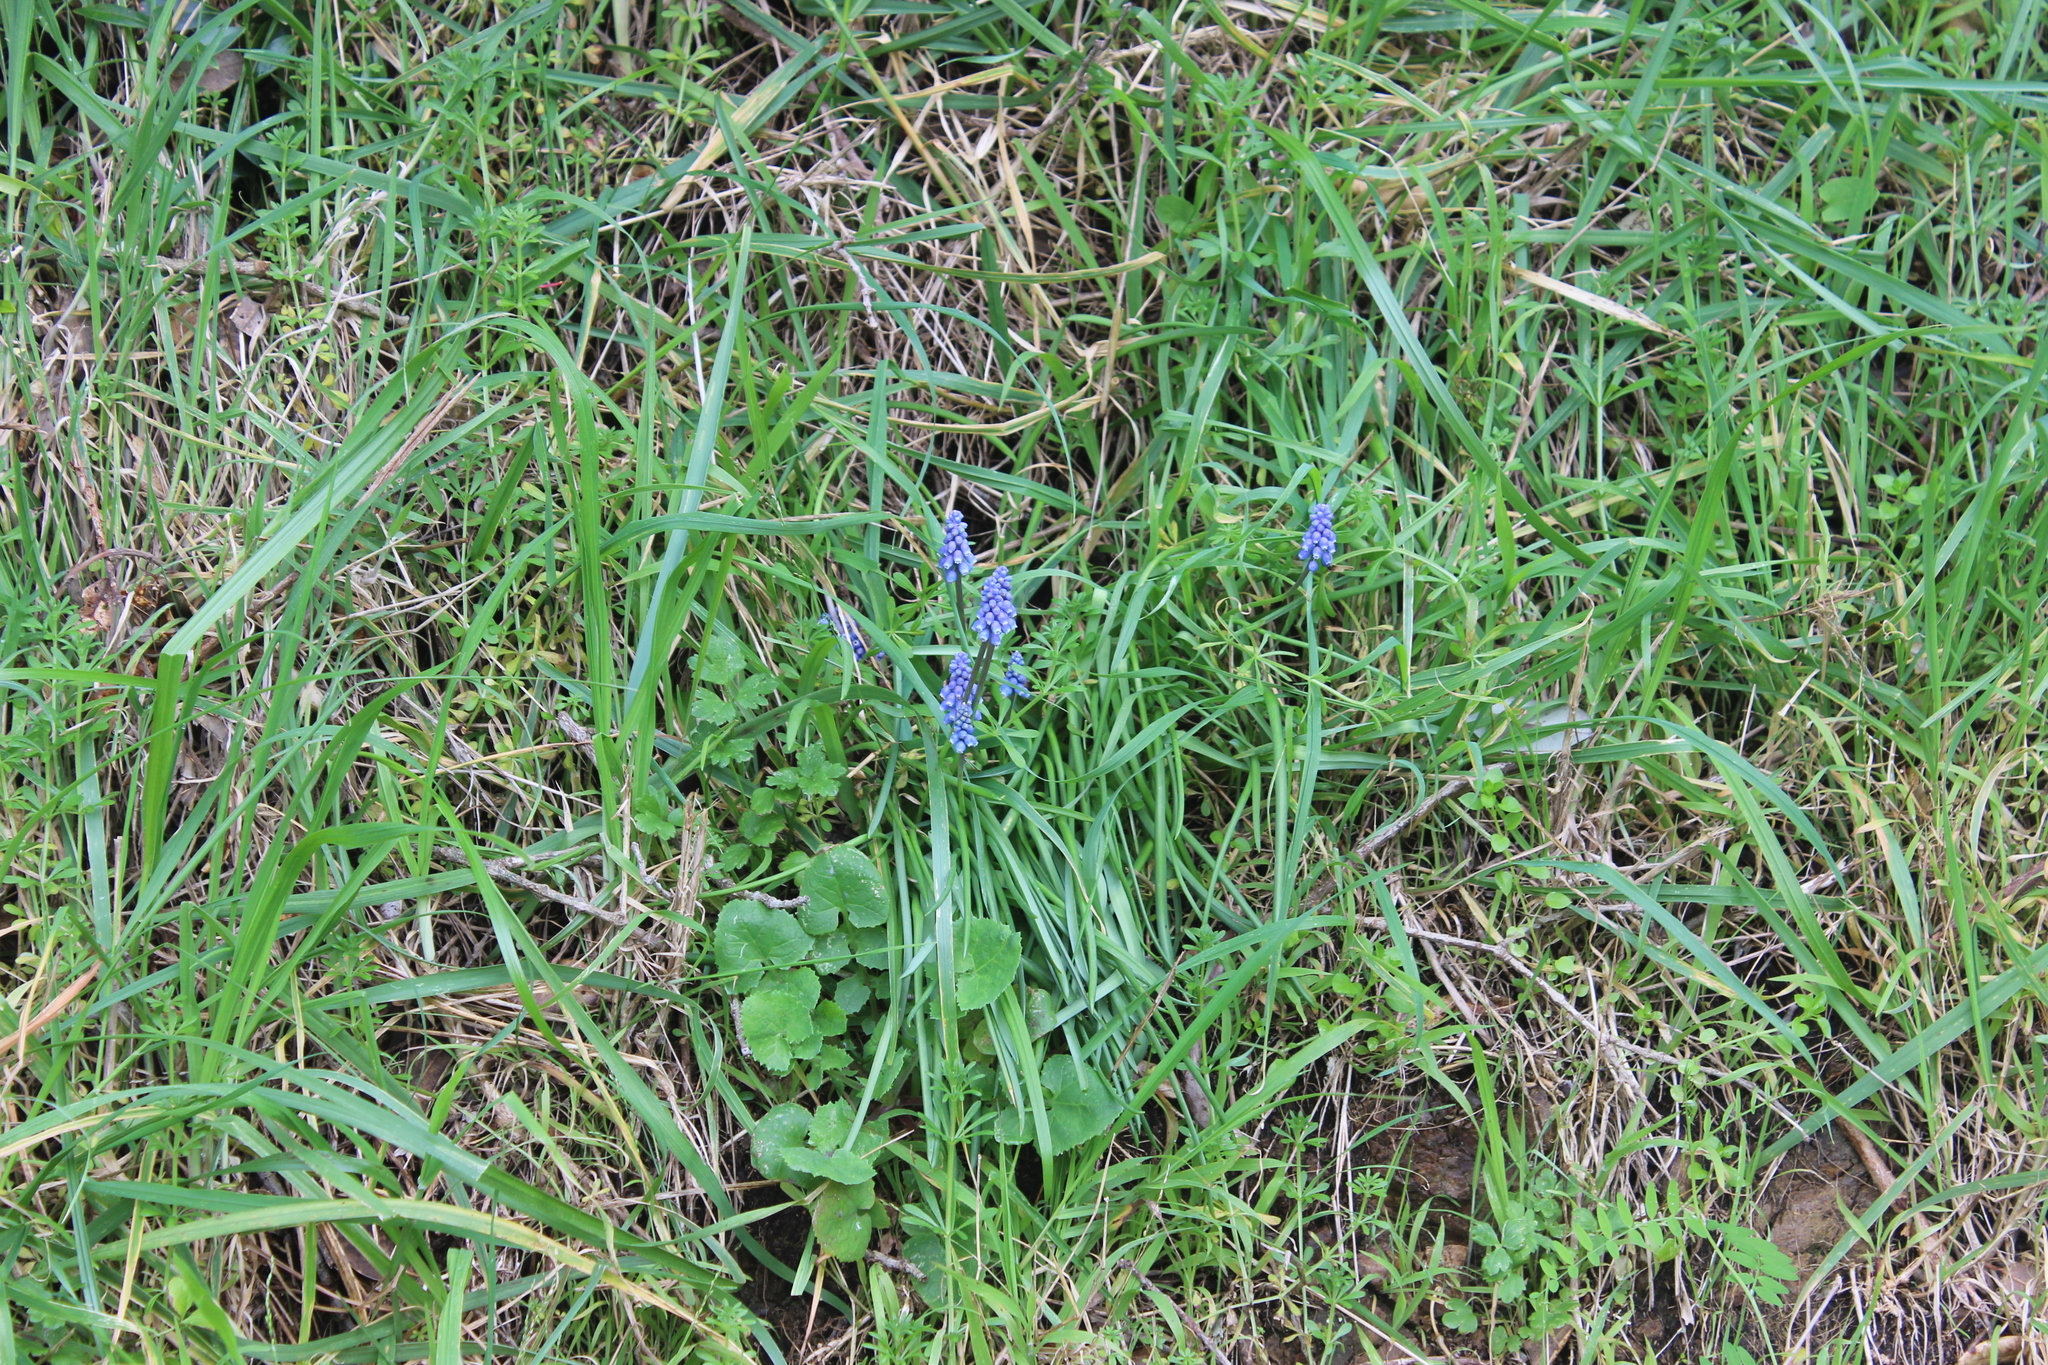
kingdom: Plantae
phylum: Tracheophyta
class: Liliopsida
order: Asparagales
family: Asparagaceae
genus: Muscari
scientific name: Muscari armeniacum
